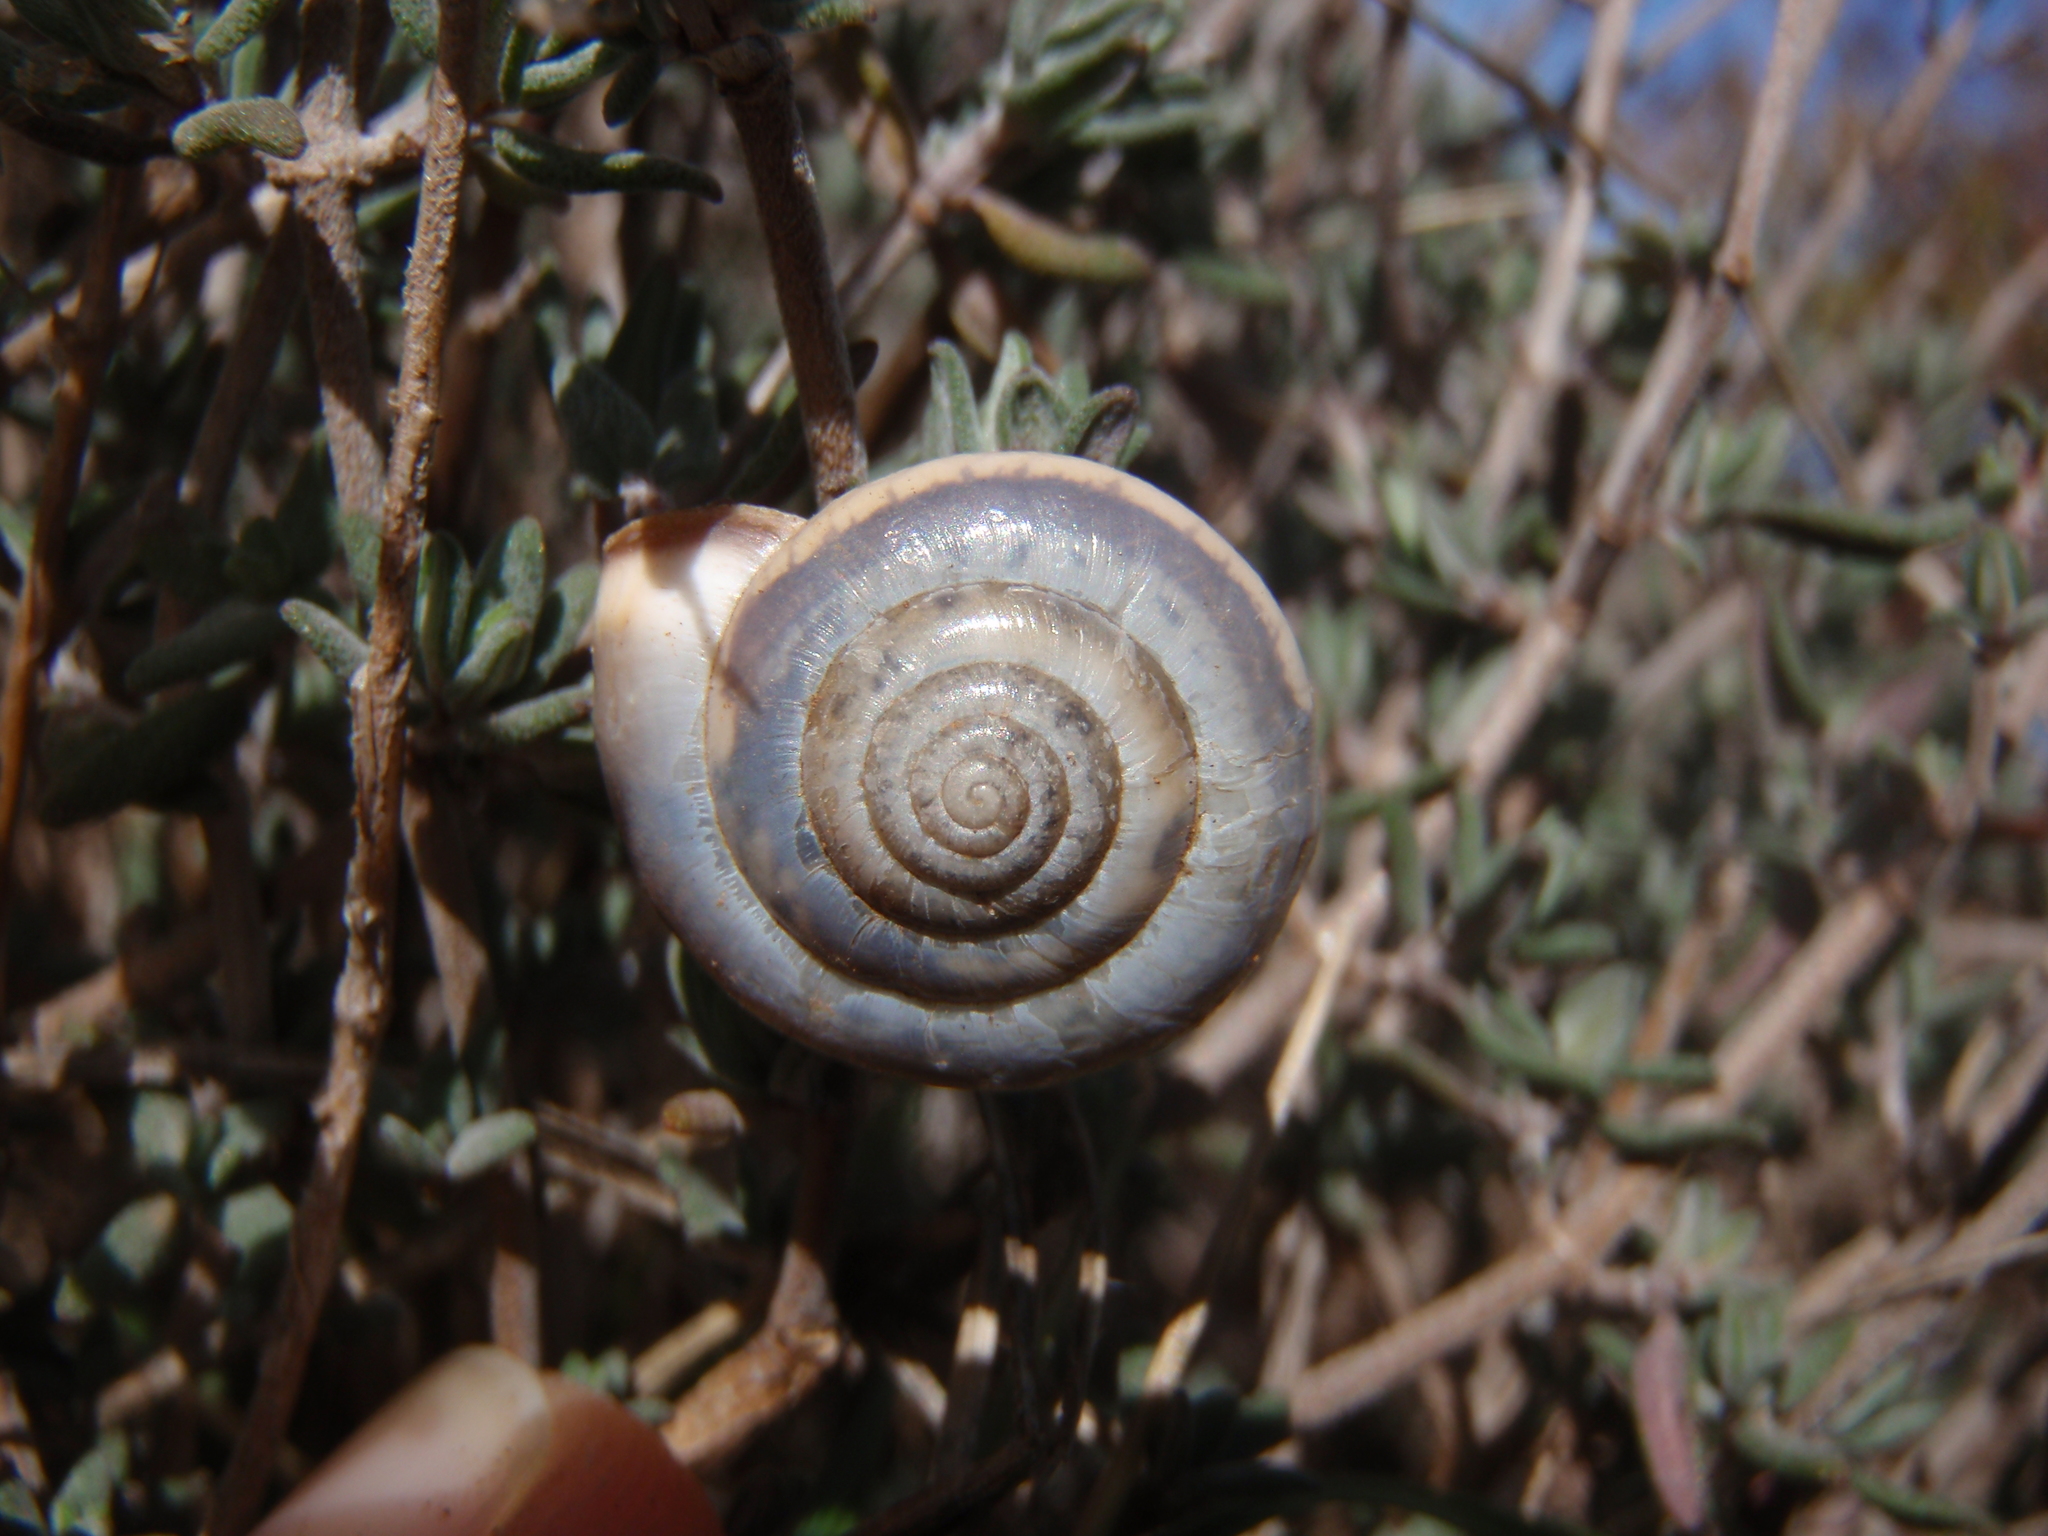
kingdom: Animalia
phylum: Mollusca
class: Gastropoda
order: Stylommatophora
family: Hygromiidae
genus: Monacha
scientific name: Monacha cartusiana
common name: Carthusian snail
